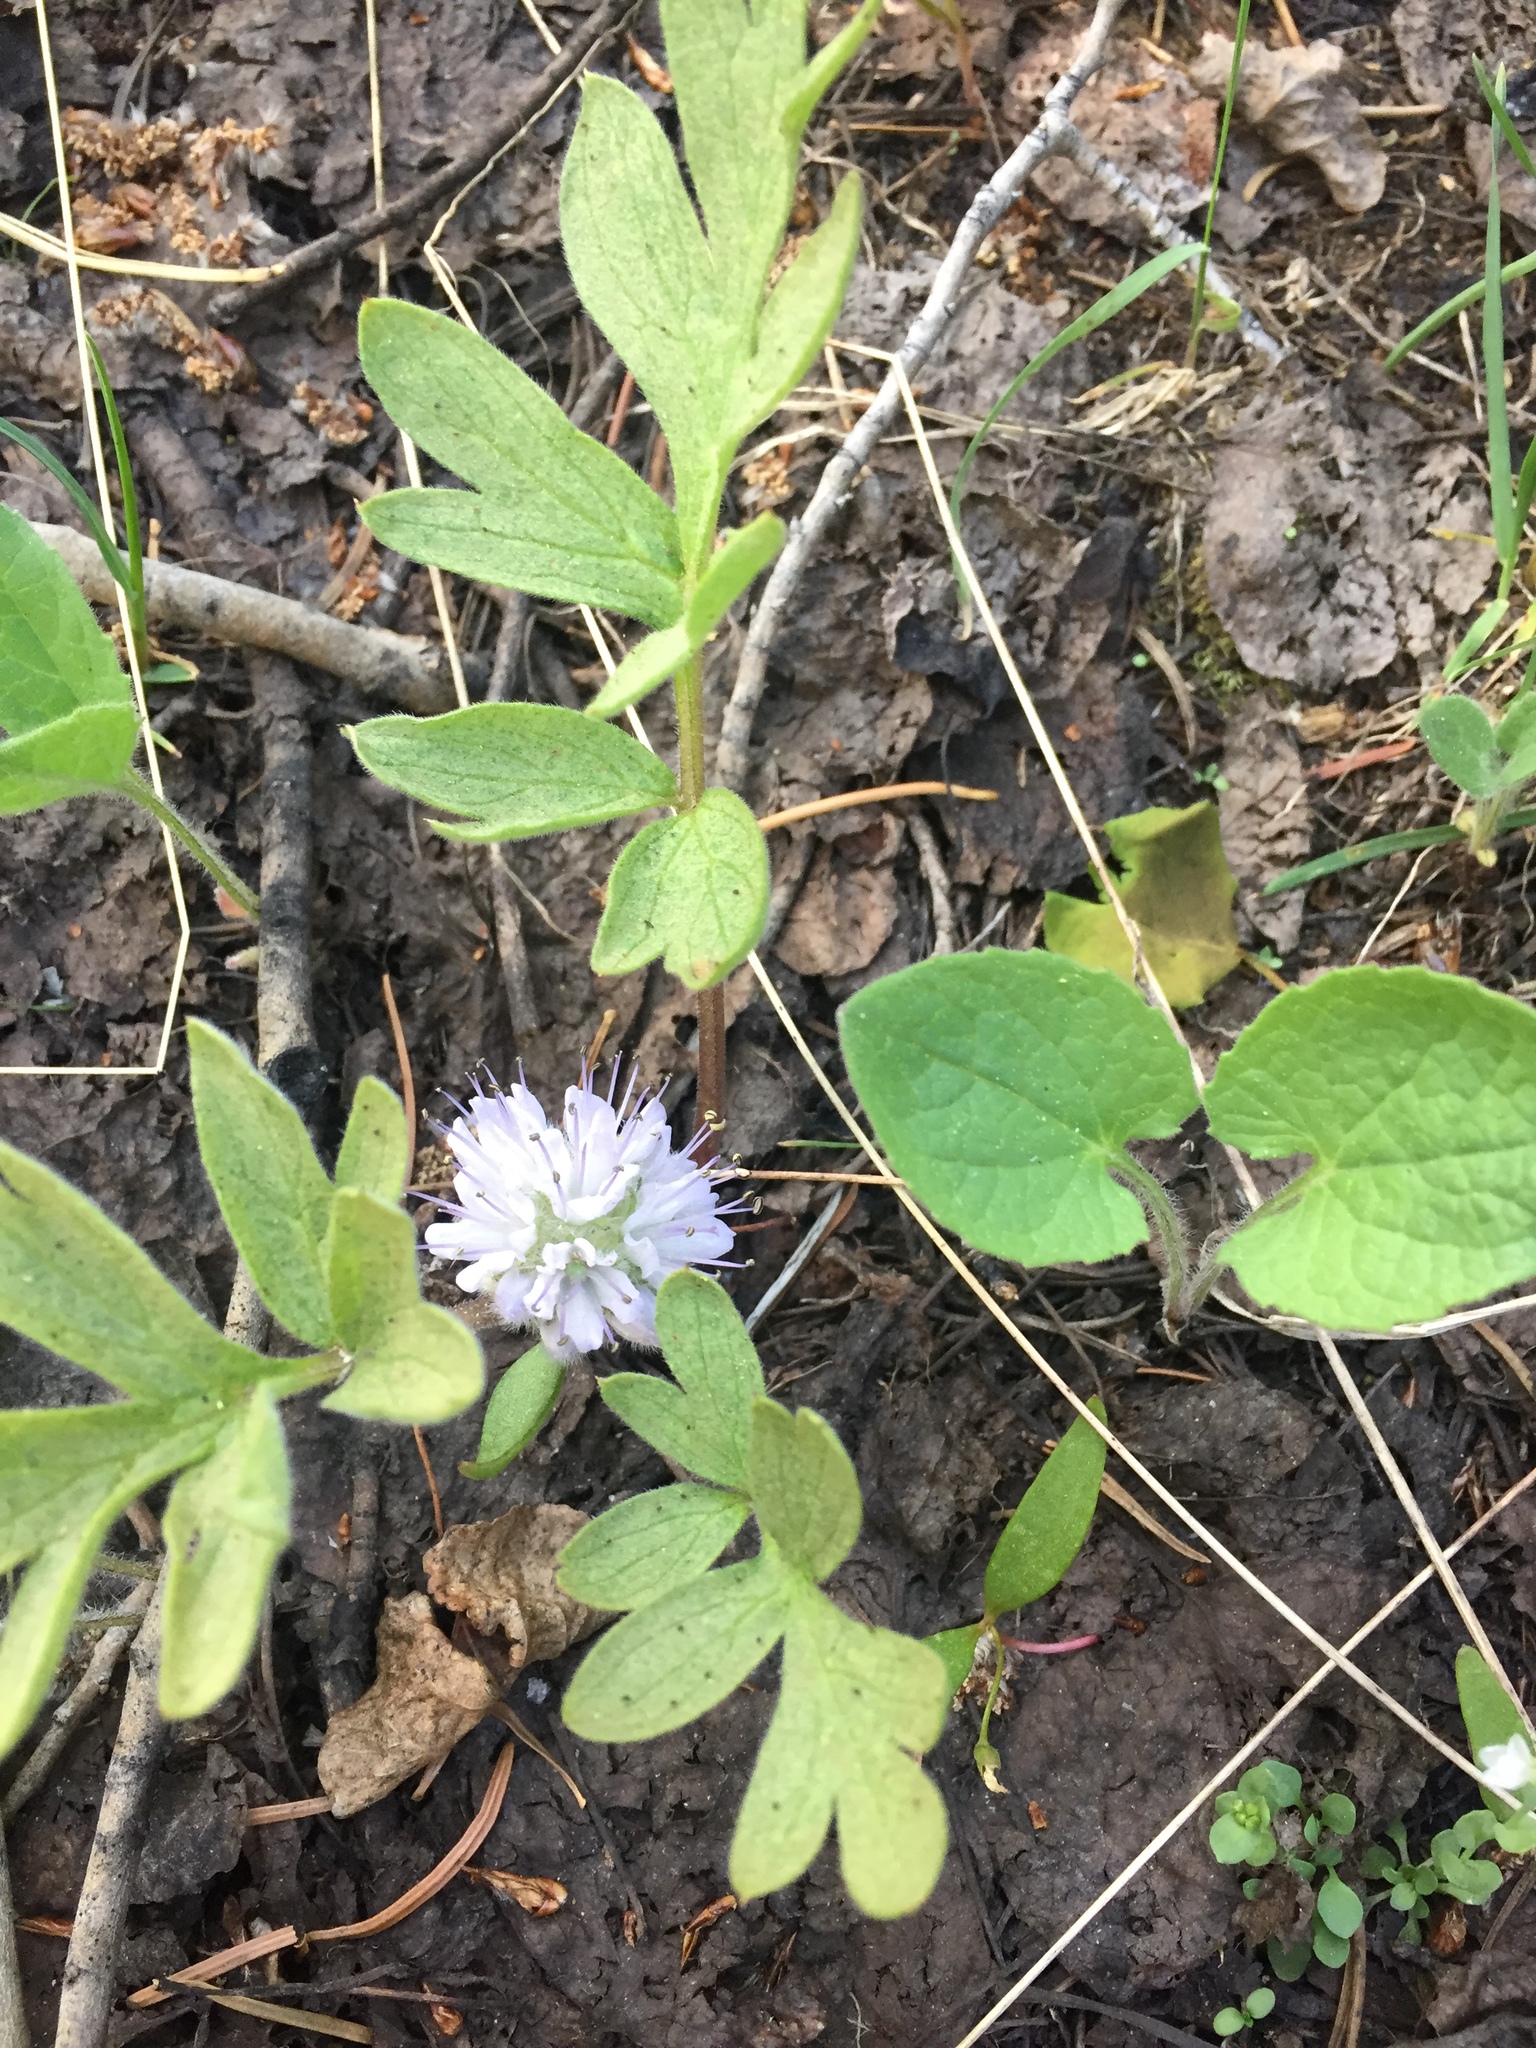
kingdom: Plantae
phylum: Tracheophyta
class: Magnoliopsida
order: Boraginales
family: Hydrophyllaceae
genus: Hydrophyllum
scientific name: Hydrophyllum occidentale
